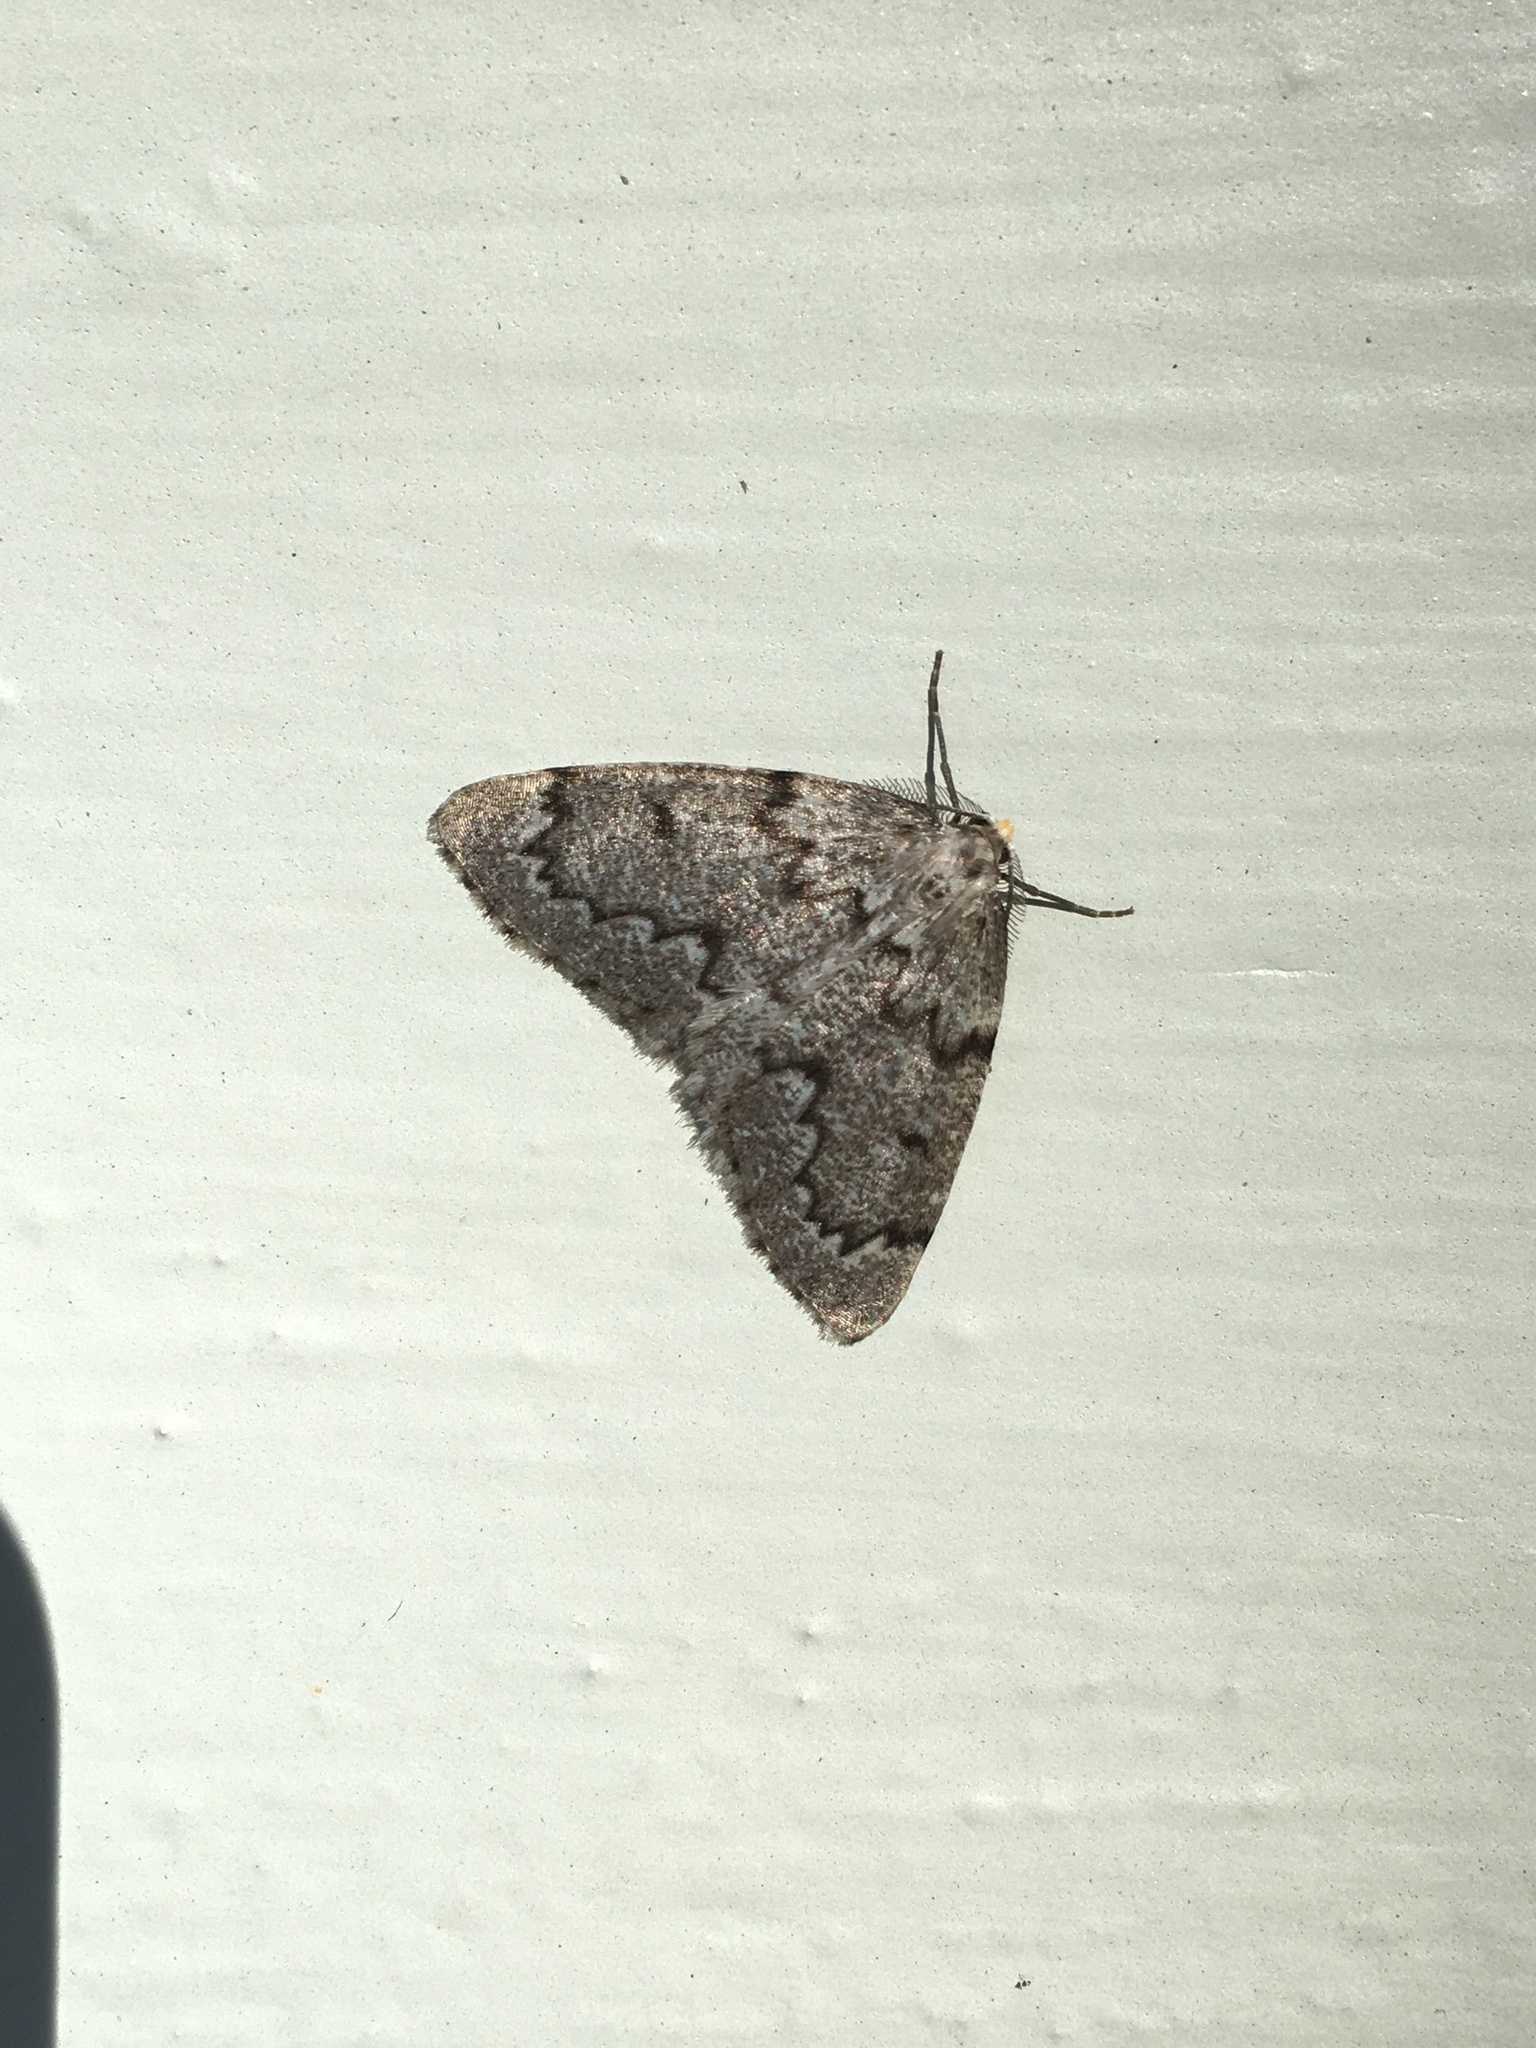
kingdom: Animalia
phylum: Arthropoda
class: Insecta
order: Lepidoptera
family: Geometridae
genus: Nepytia
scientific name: Nepytia canosaria
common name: False hemlock looper
